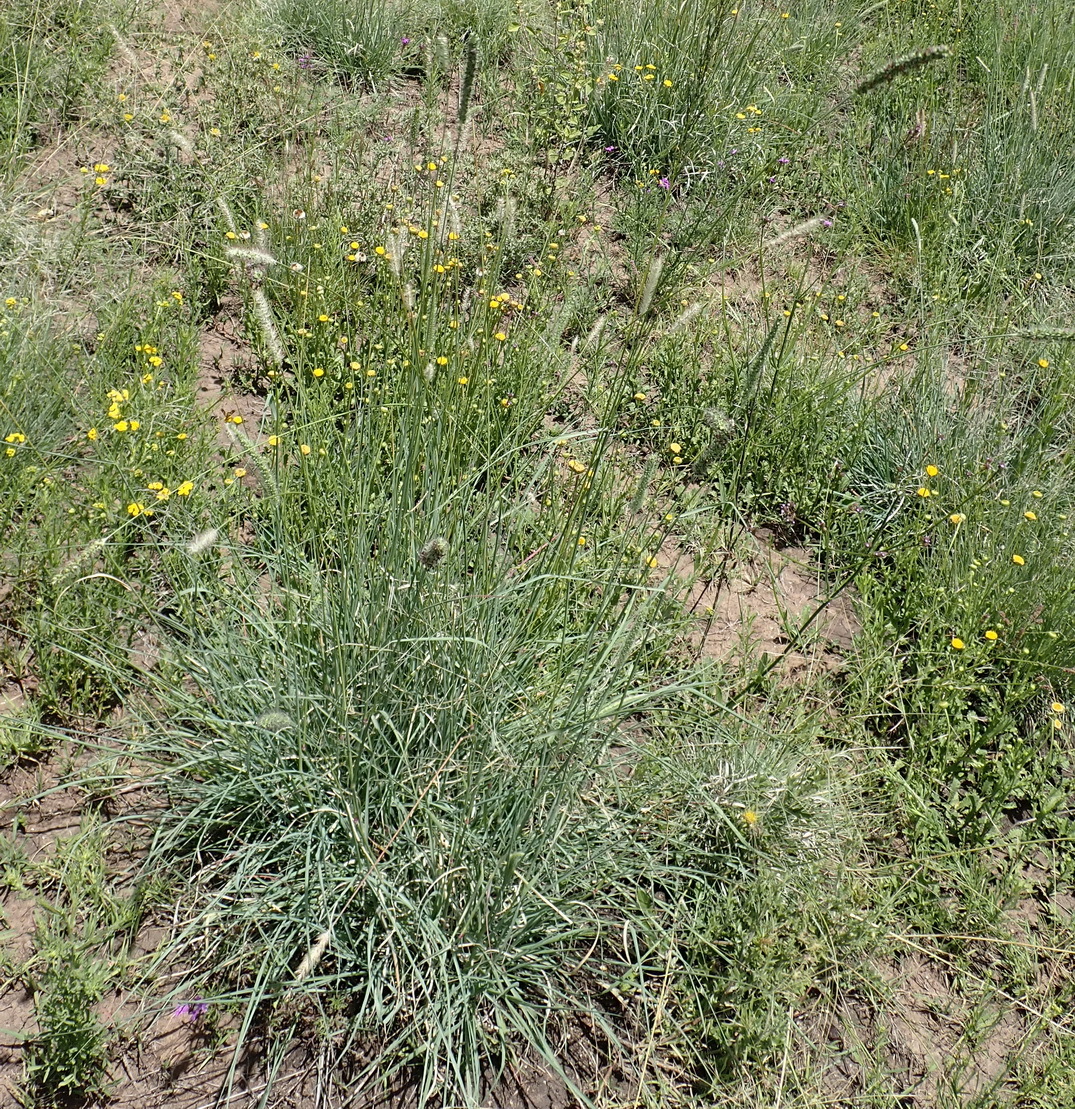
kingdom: Plantae
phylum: Tracheophyta
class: Liliopsida
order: Poales
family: Poaceae
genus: Setaria
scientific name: Setaria incrassata
